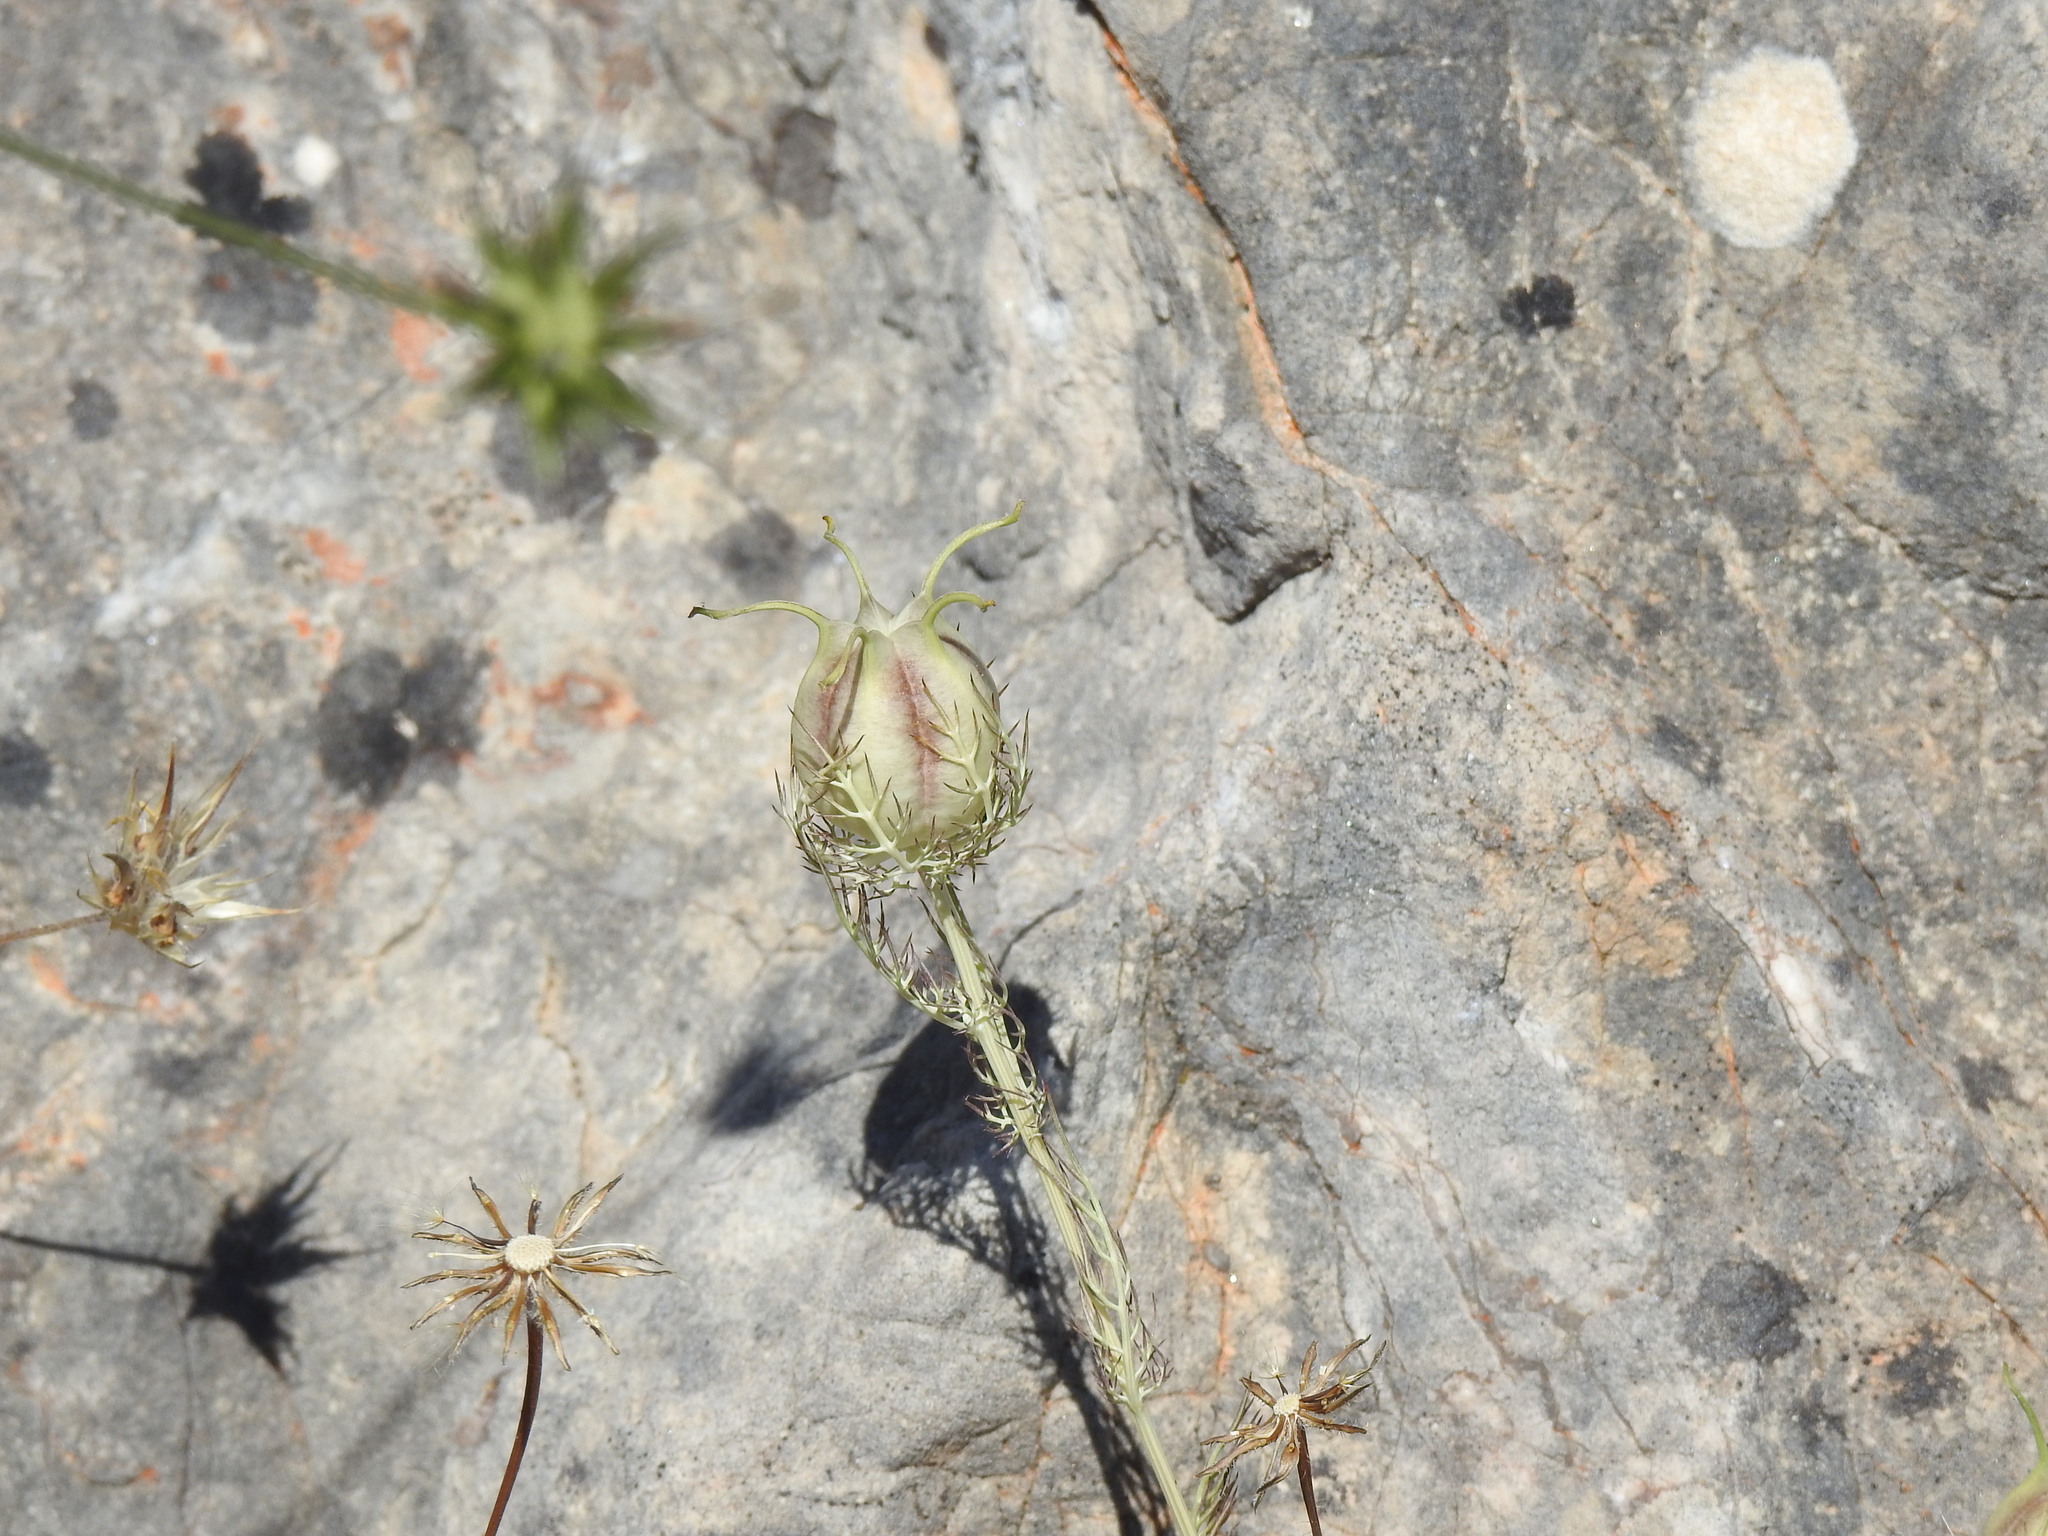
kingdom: Plantae
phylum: Tracheophyta
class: Magnoliopsida
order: Ranunculales
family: Ranunculaceae
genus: Nigella
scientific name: Nigella damascena
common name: Love-in-a-mist
